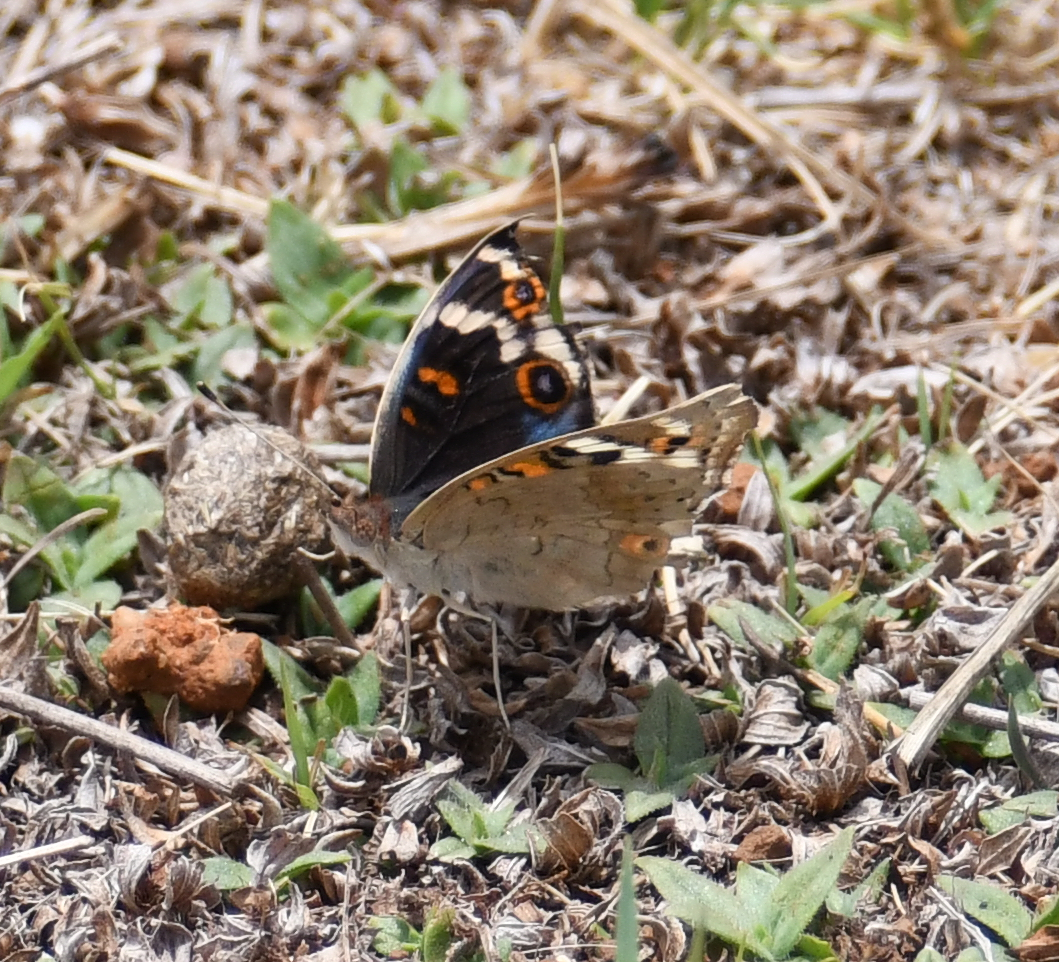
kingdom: Animalia
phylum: Arthropoda
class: Insecta
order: Lepidoptera
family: Nymphalidae
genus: Junonia
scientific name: Junonia orithya
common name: Blue pansy
